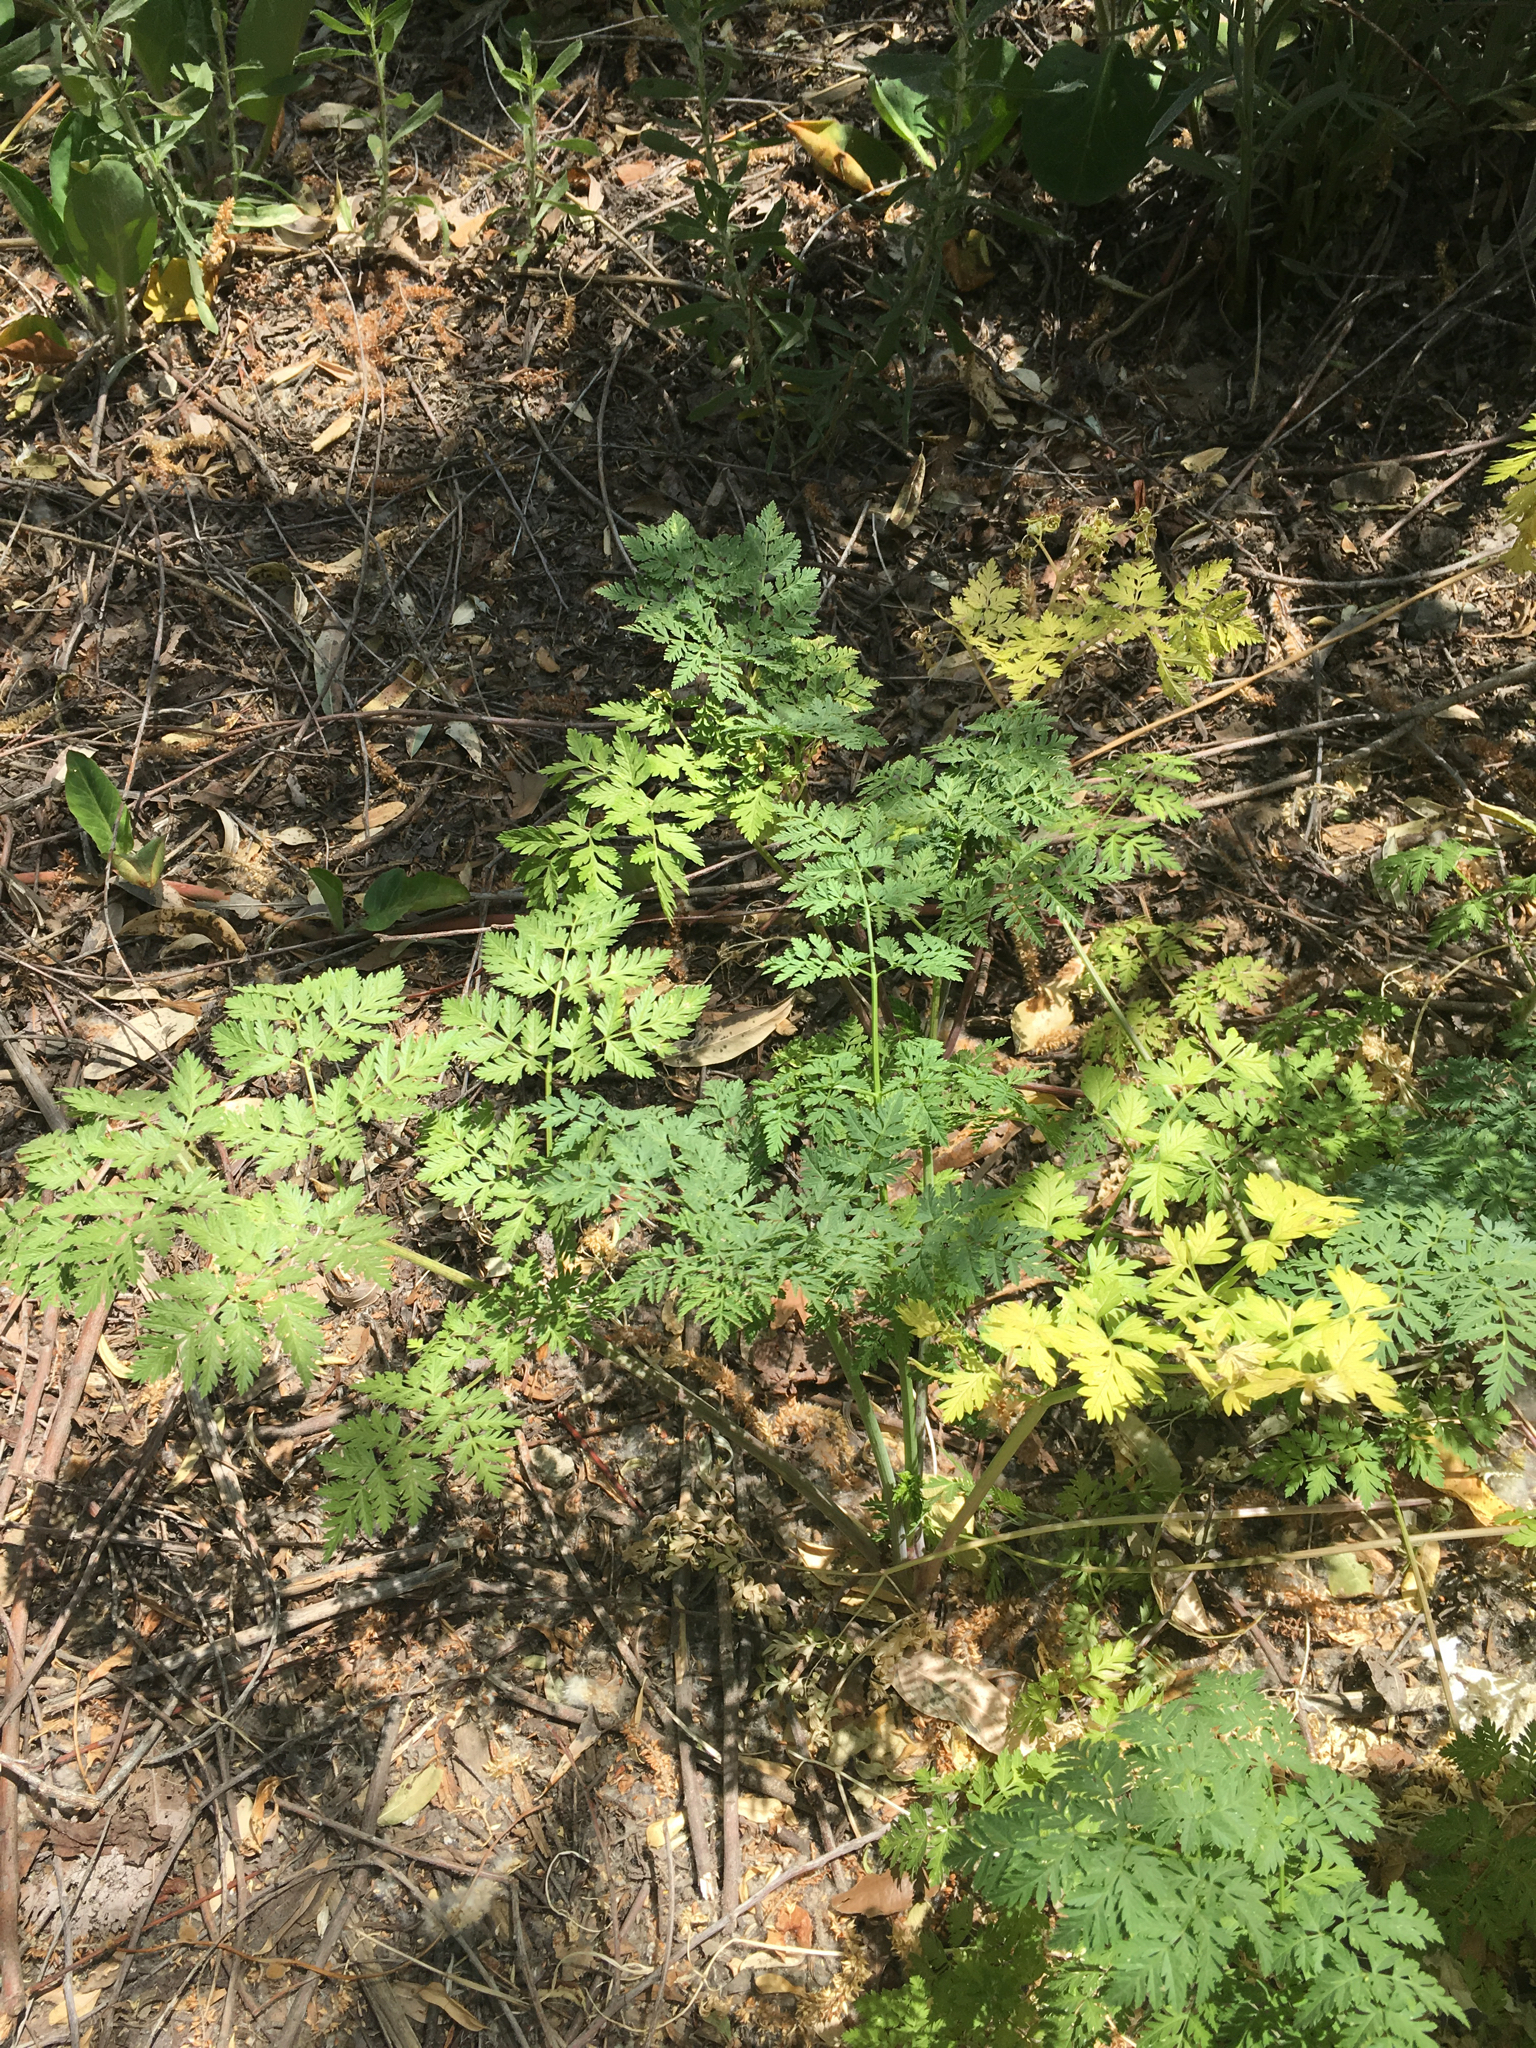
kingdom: Plantae
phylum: Tracheophyta
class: Magnoliopsida
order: Apiales
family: Apiaceae
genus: Conium
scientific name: Conium maculatum
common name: Hemlock
